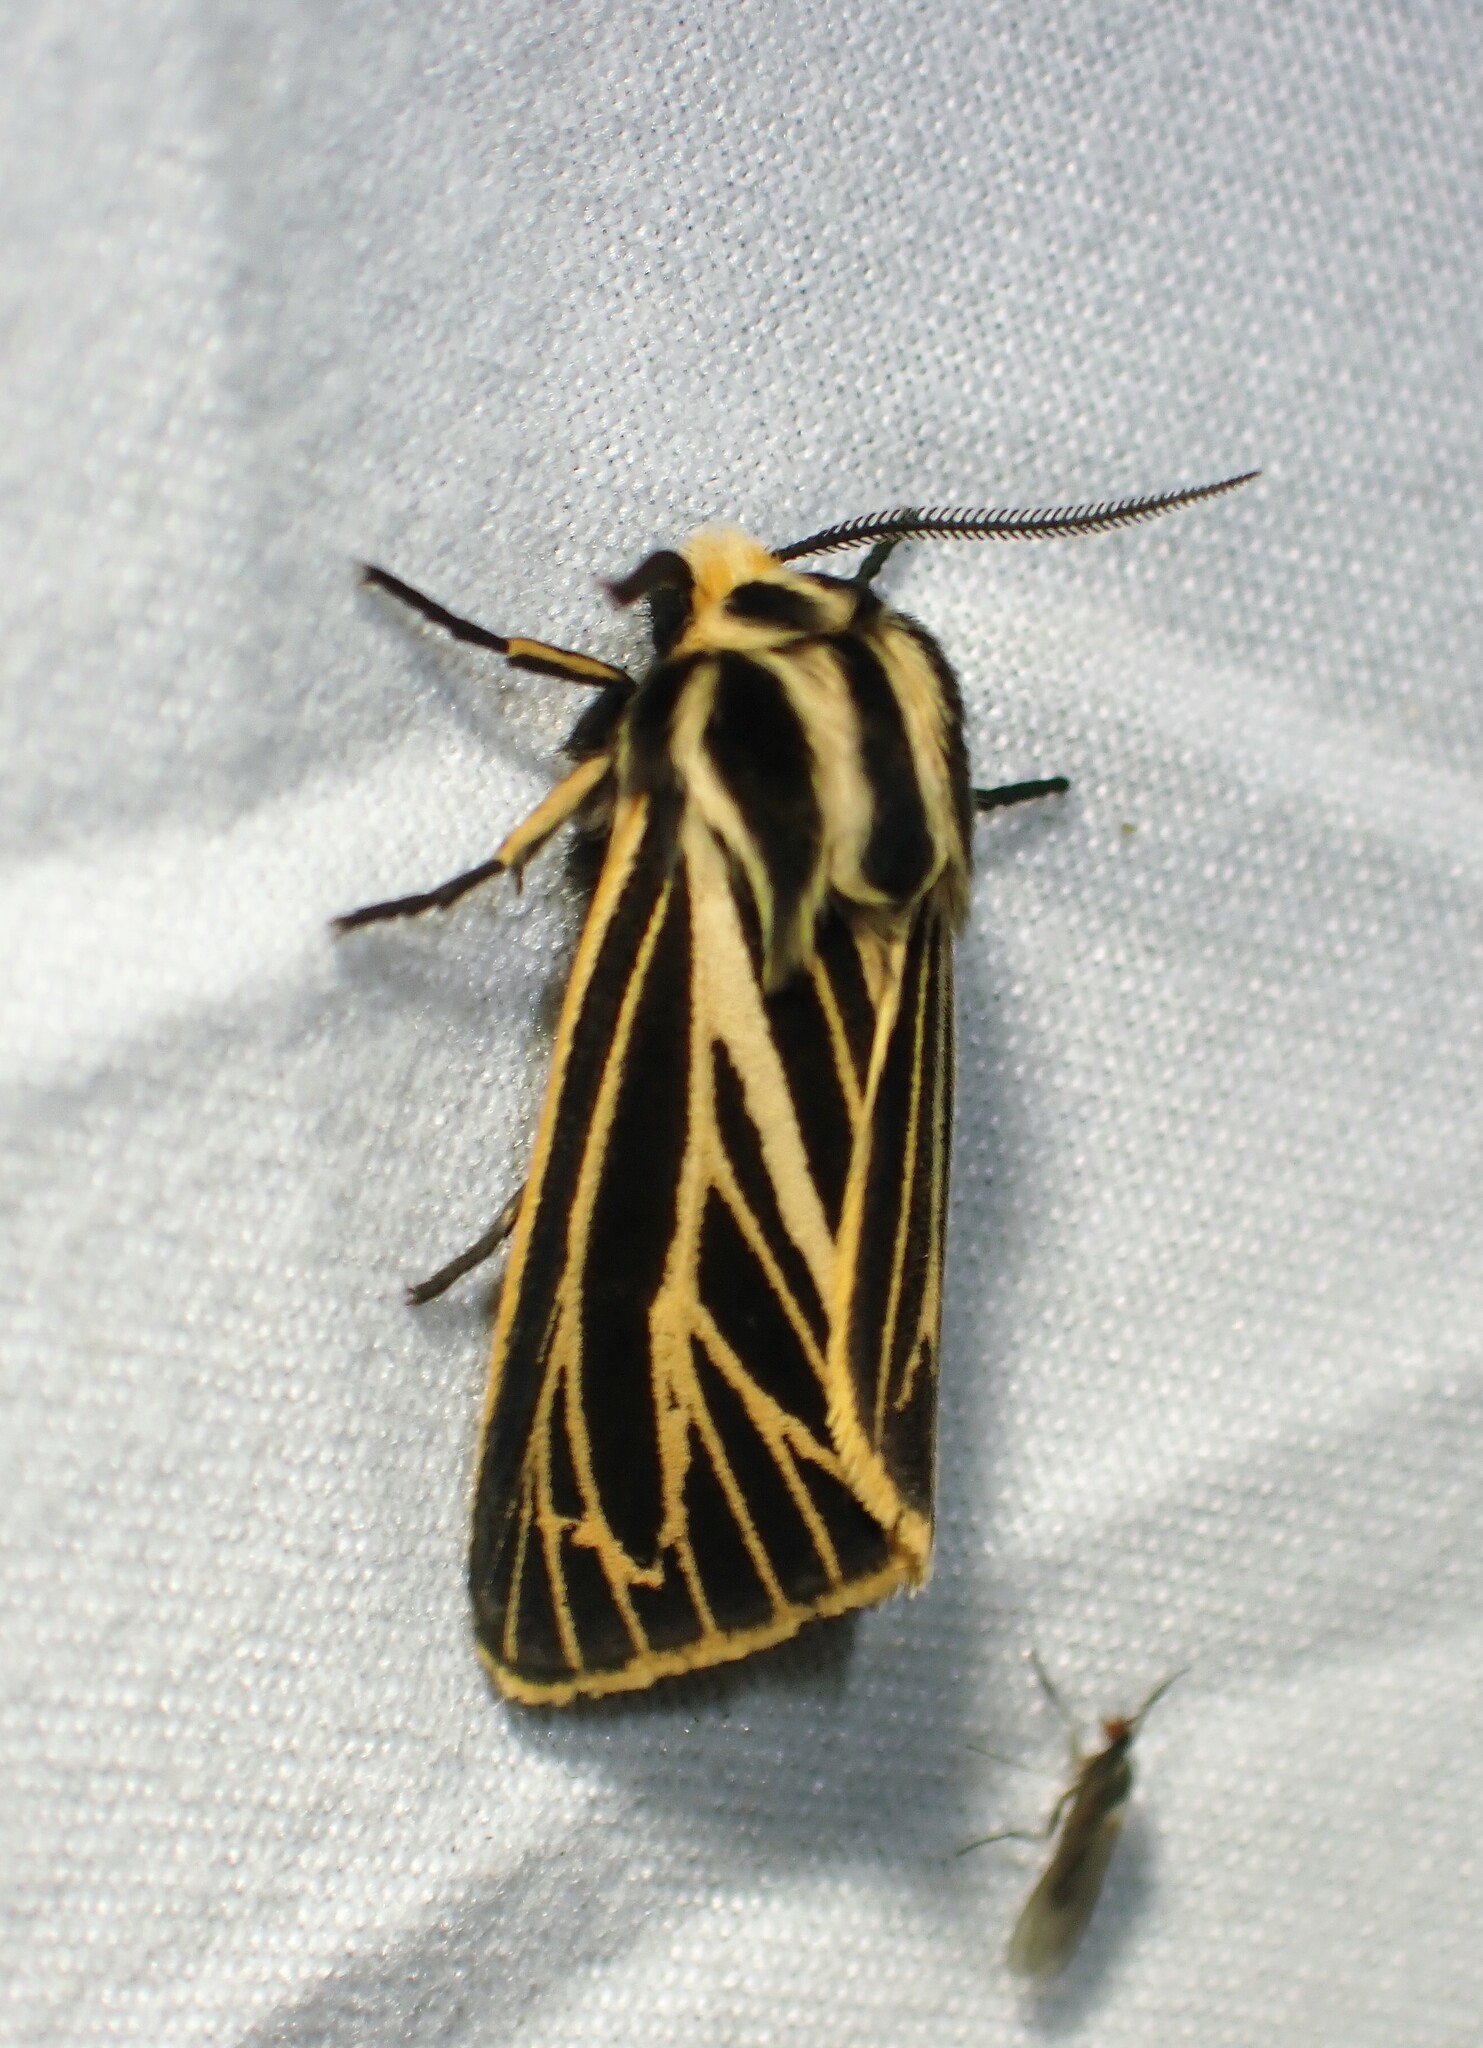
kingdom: Animalia
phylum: Arthropoda
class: Insecta
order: Lepidoptera
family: Erebidae
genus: Grammia
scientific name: Grammia virguncula
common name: Little tiger moth
